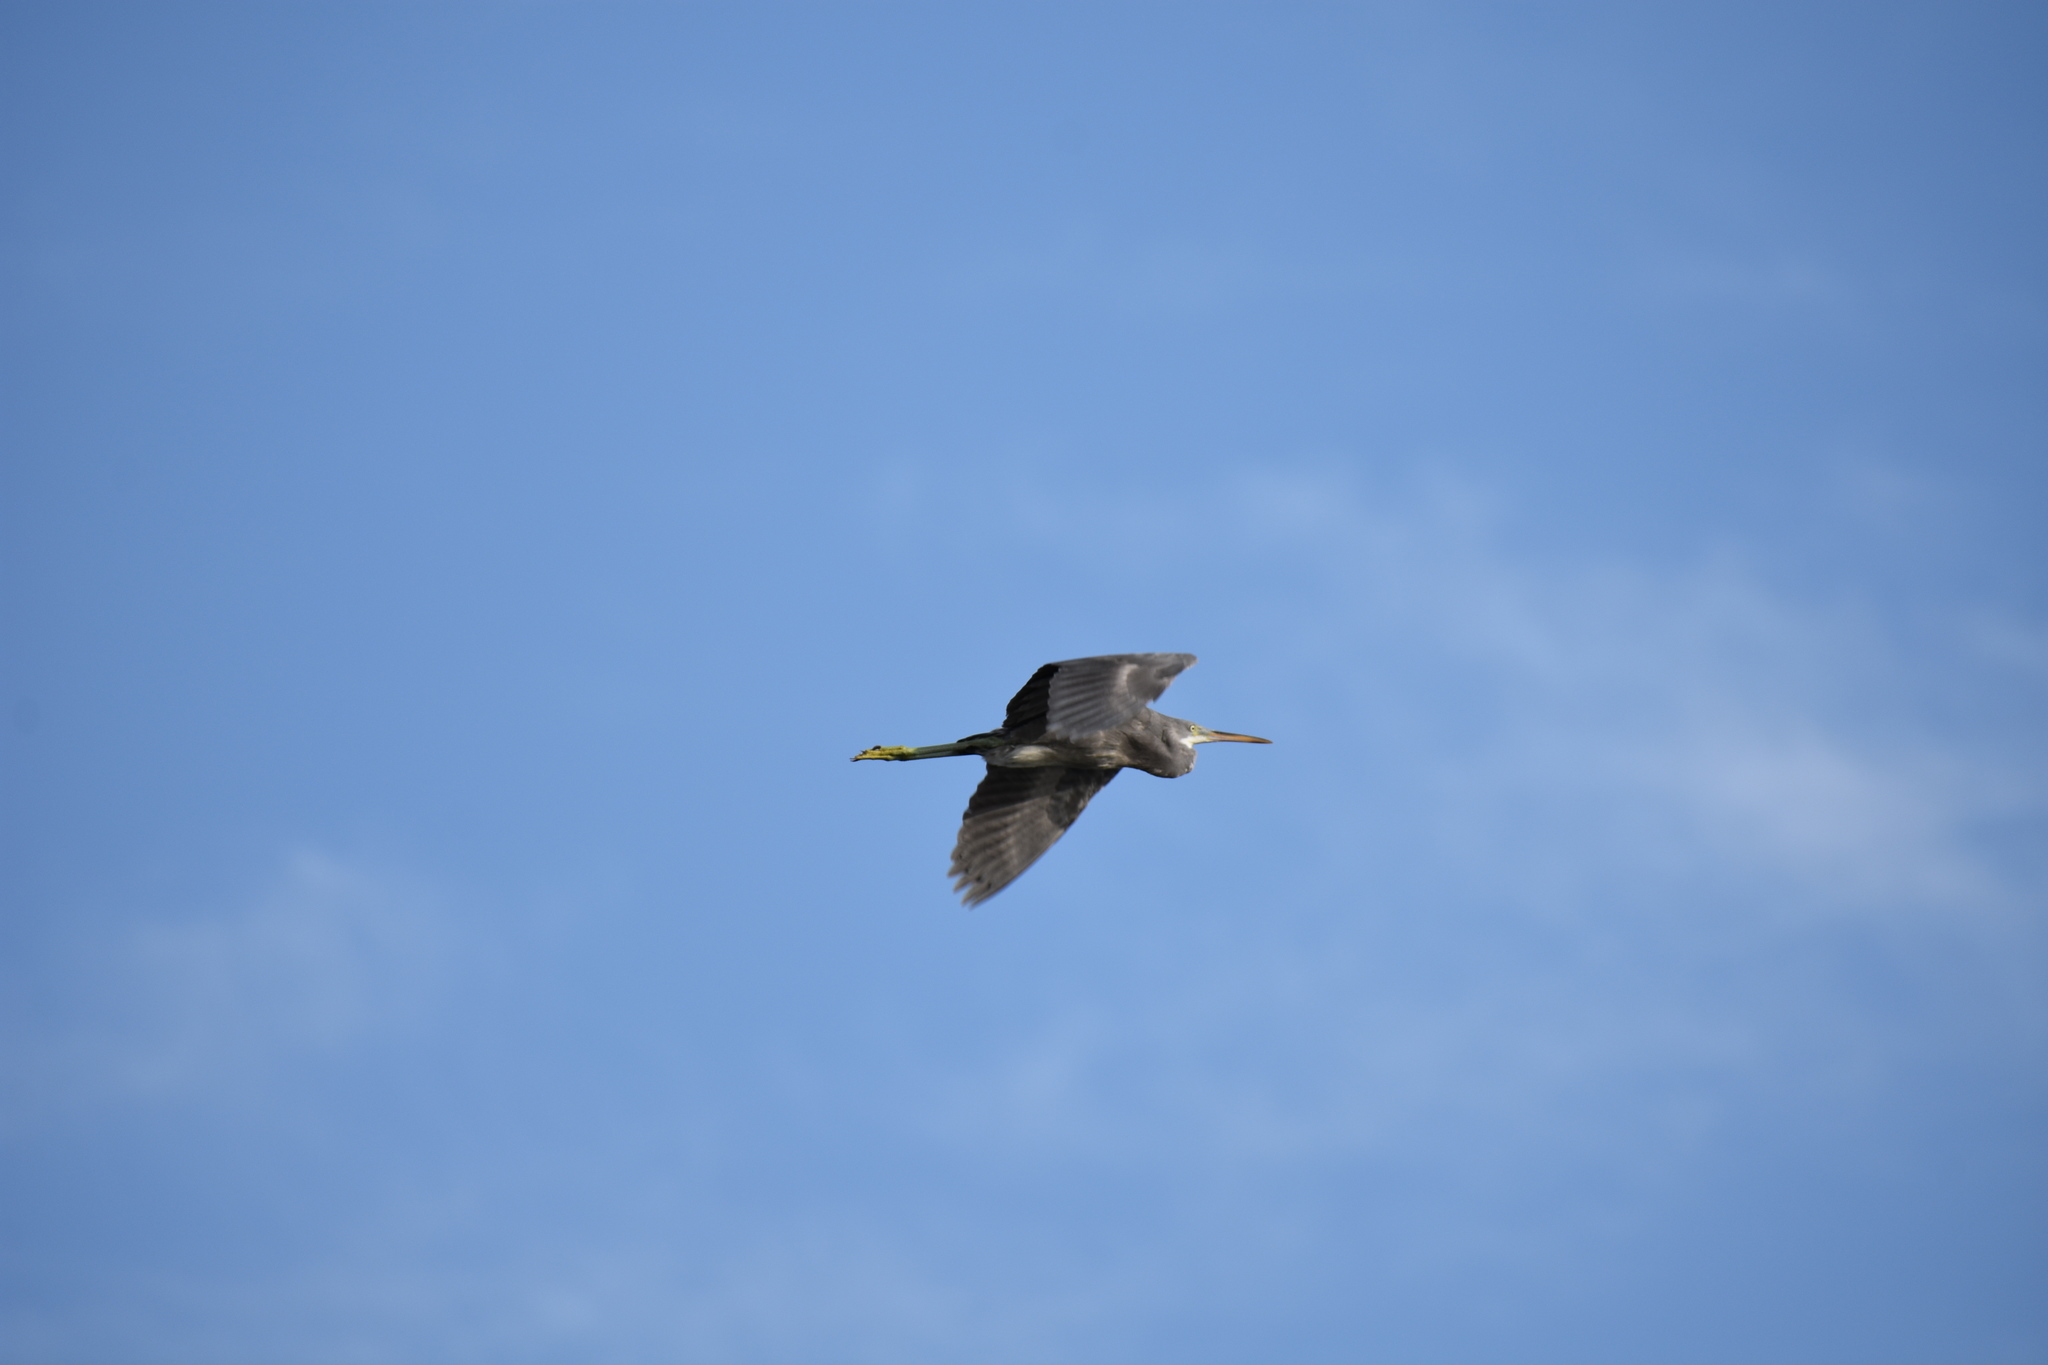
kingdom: Animalia
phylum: Chordata
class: Aves
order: Pelecaniformes
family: Ardeidae
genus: Egretta
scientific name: Egretta gularis
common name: Western reef-heron
